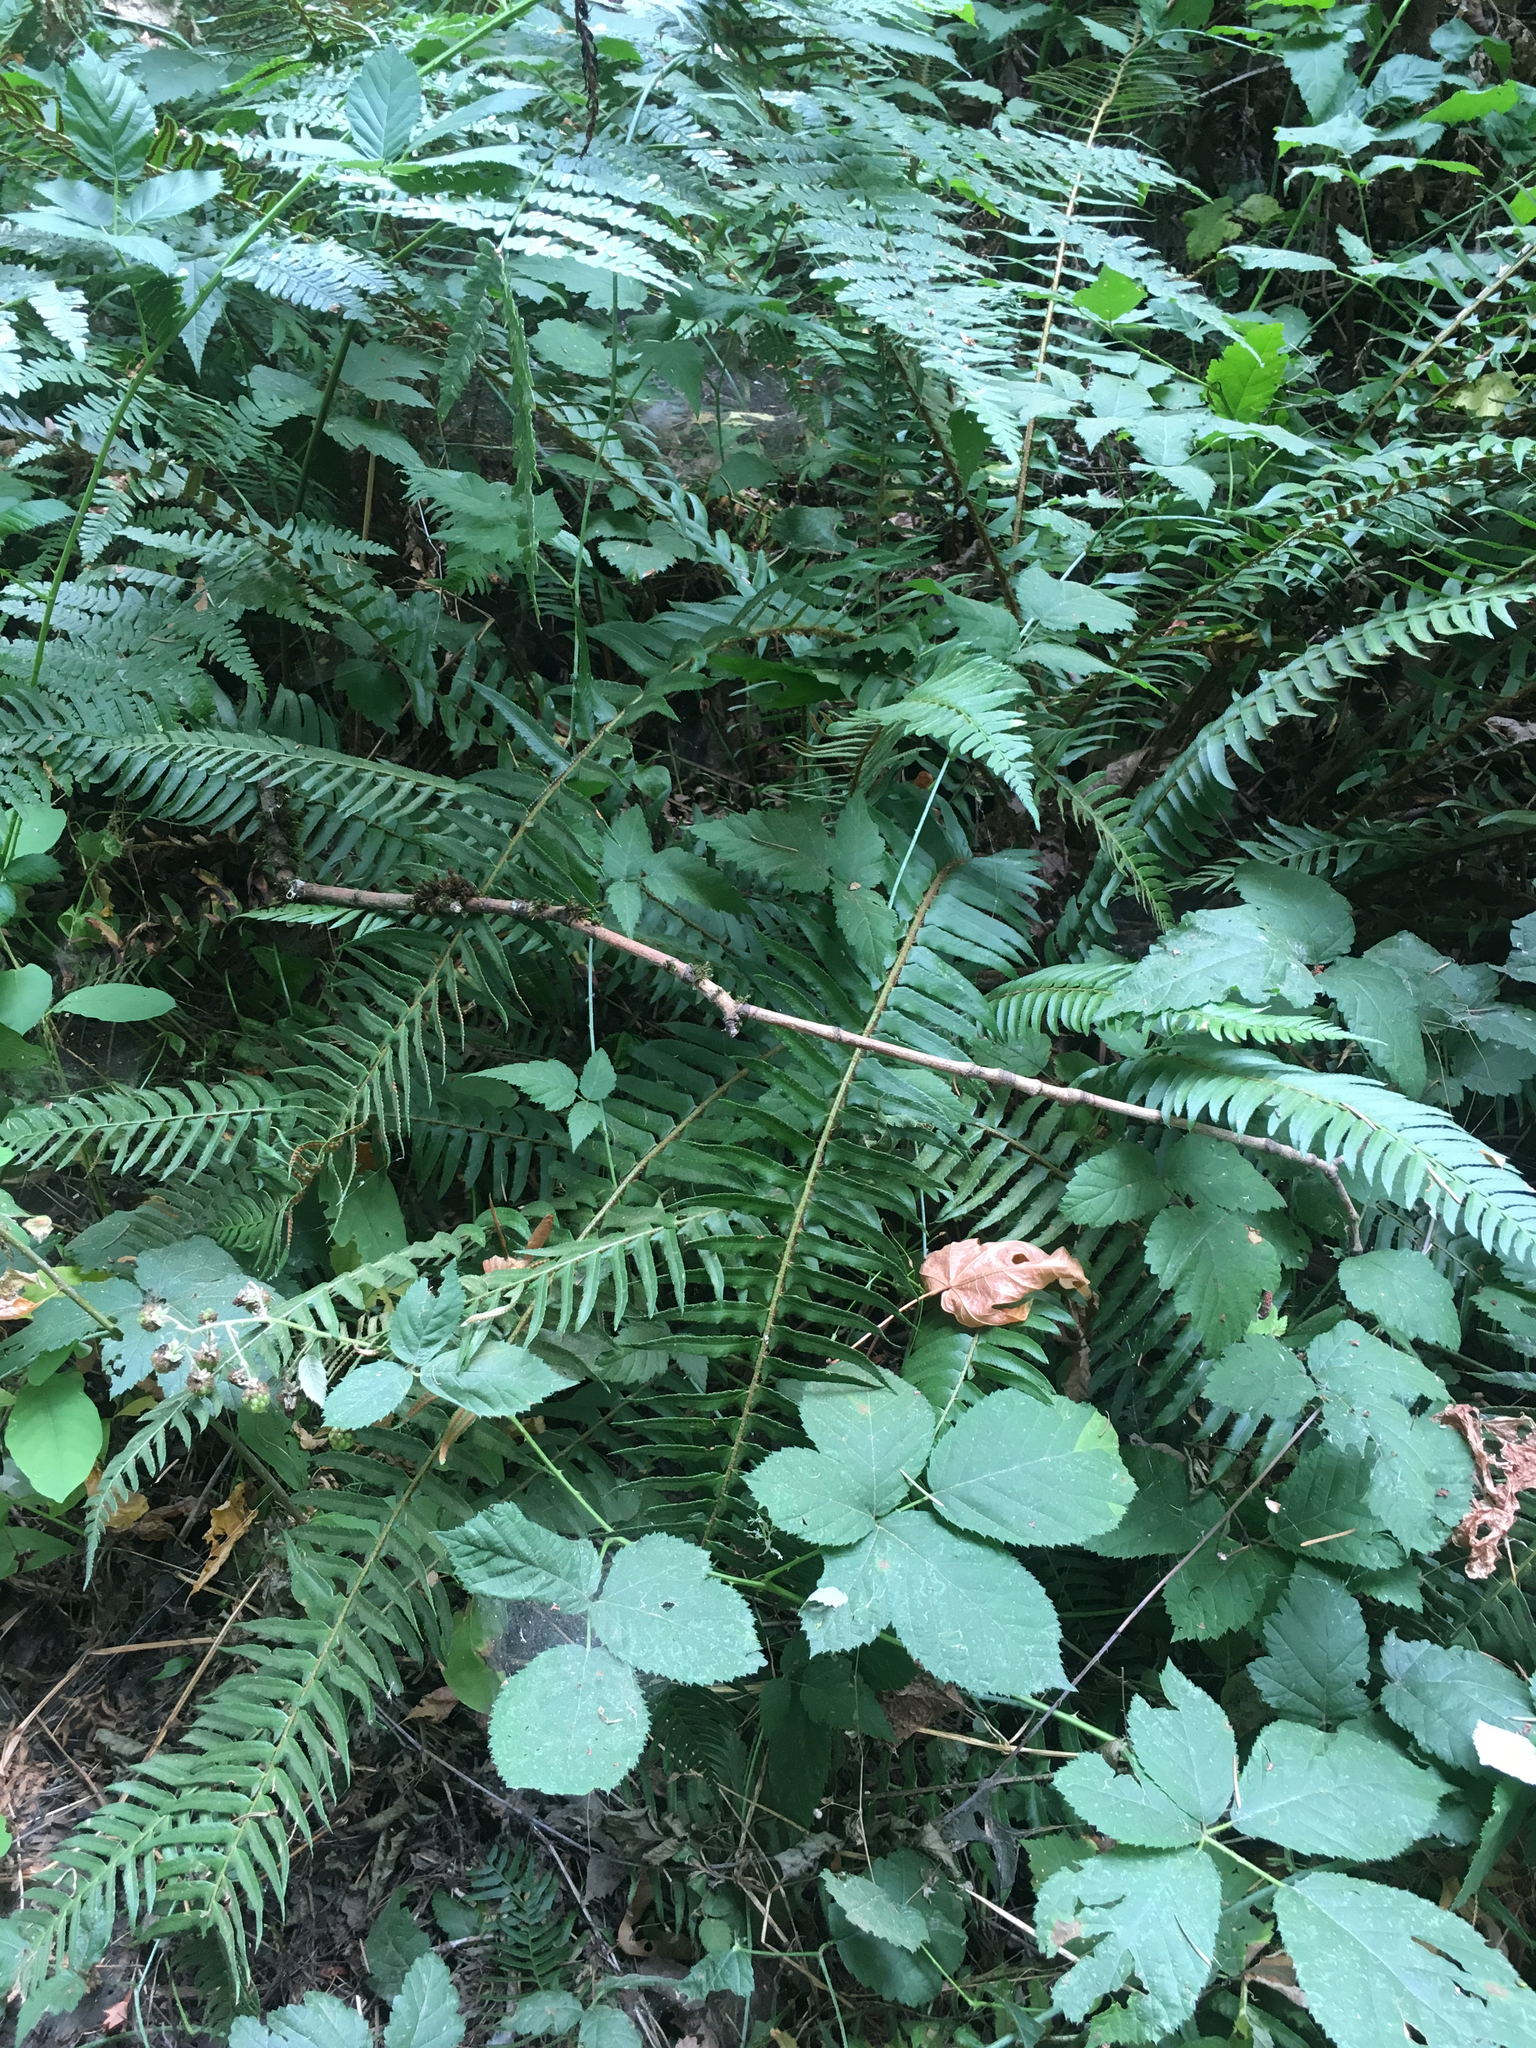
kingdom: Plantae
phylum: Tracheophyta
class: Polypodiopsida
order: Polypodiales
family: Dryopteridaceae
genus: Polystichum
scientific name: Polystichum munitum
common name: Western sword-fern
